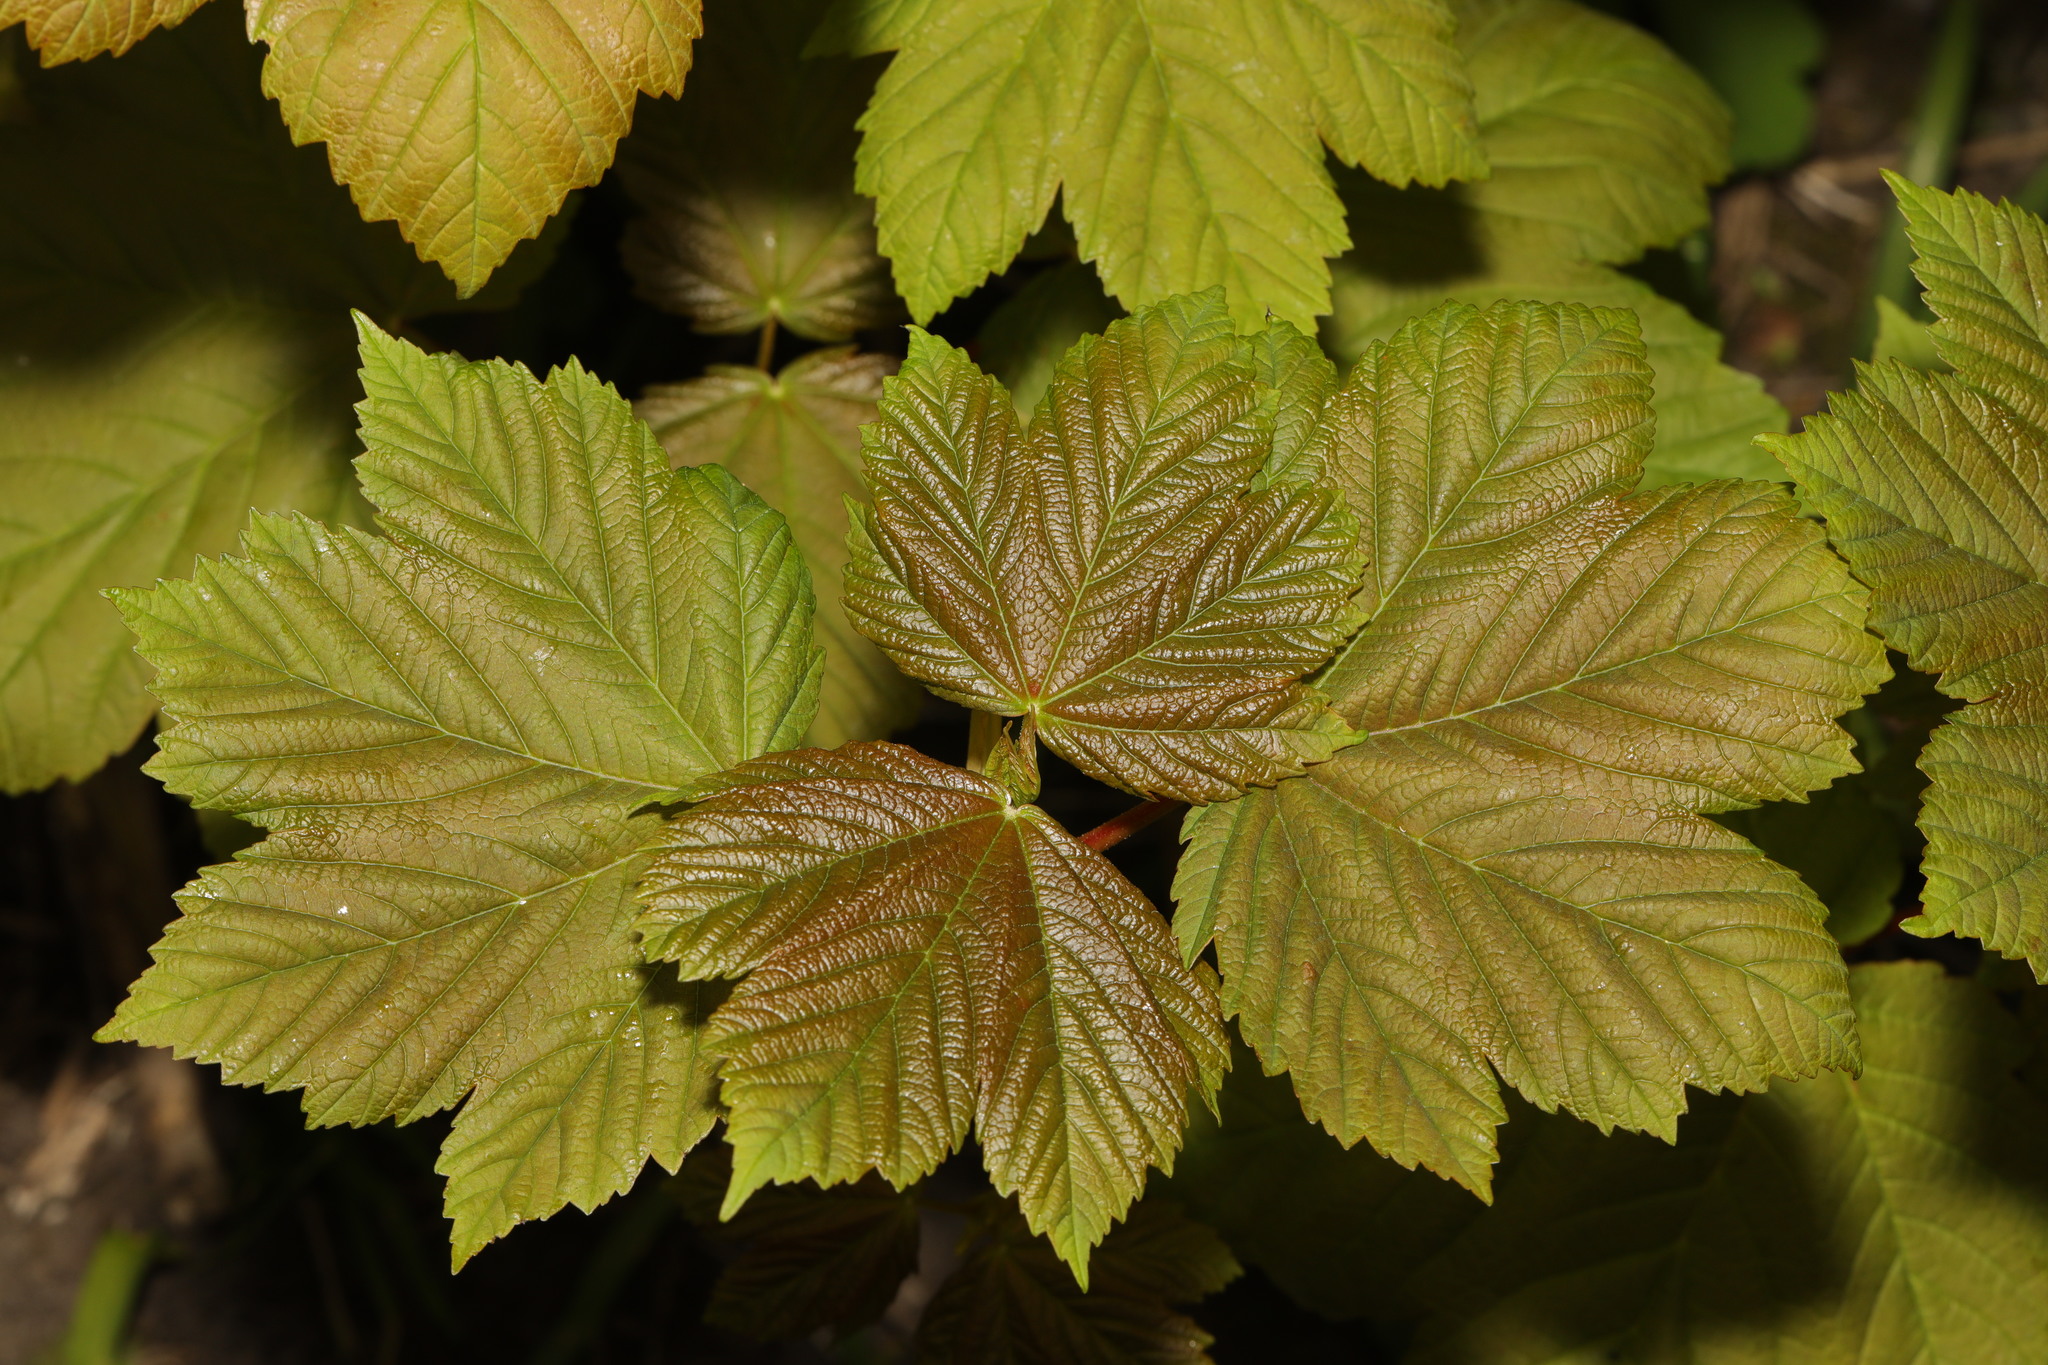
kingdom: Plantae
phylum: Tracheophyta
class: Magnoliopsida
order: Sapindales
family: Sapindaceae
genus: Acer
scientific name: Acer pseudoplatanus
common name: Sycamore
